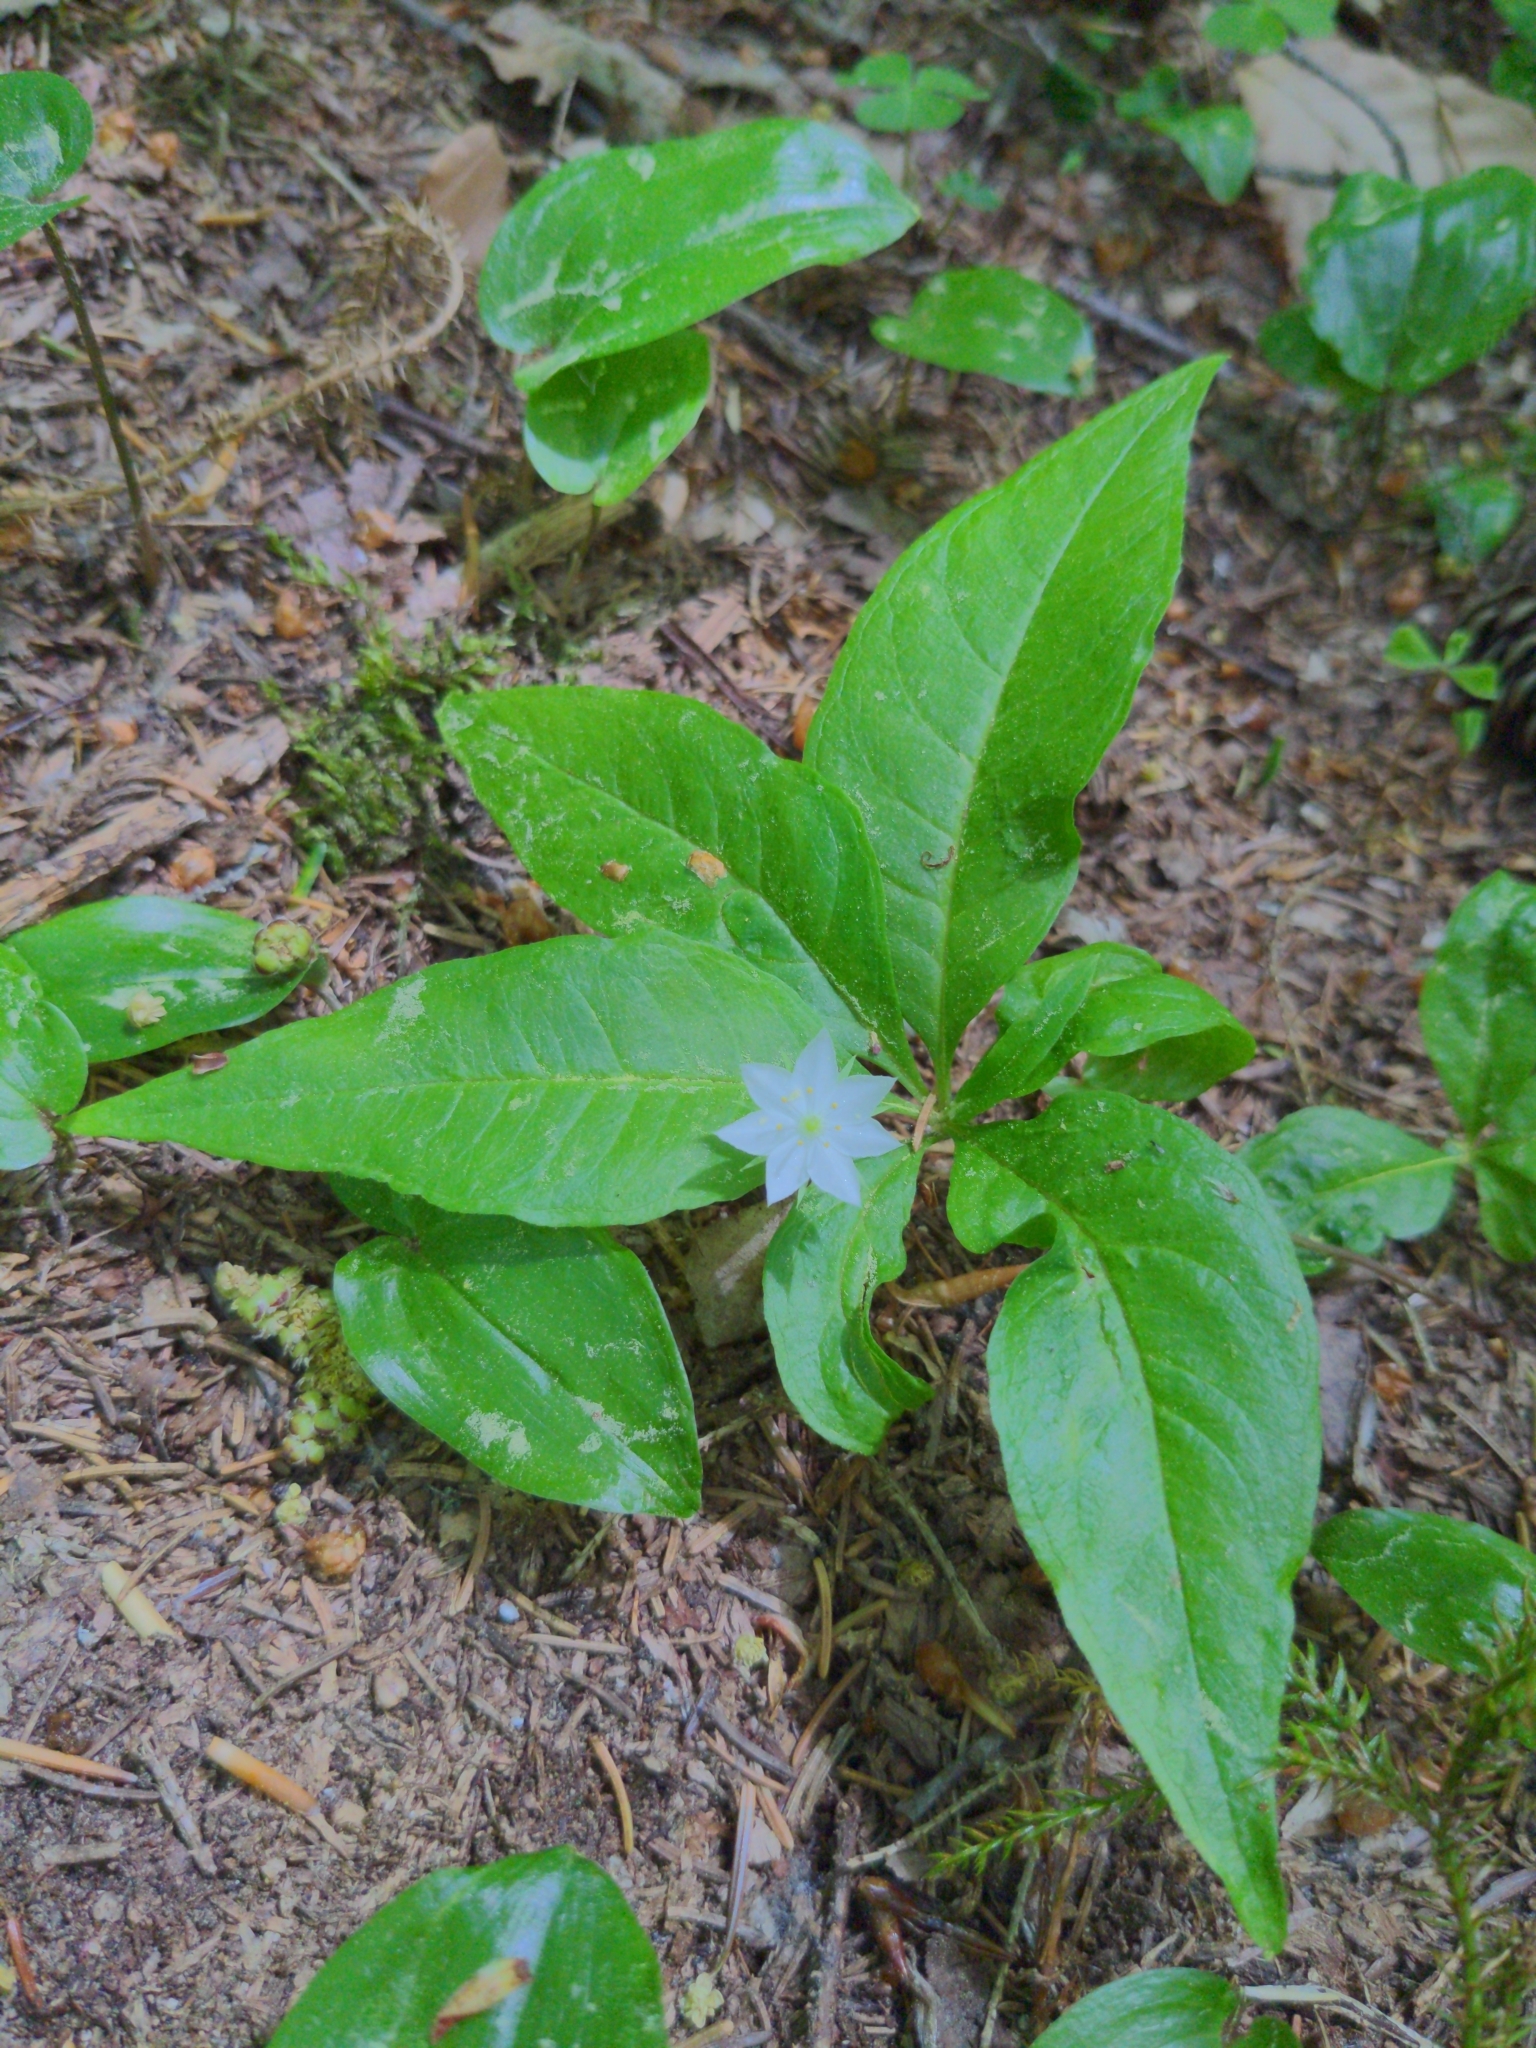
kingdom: Plantae
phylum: Tracheophyta
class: Magnoliopsida
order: Ericales
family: Primulaceae
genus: Lysimachia
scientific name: Lysimachia borealis
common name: American starflower
